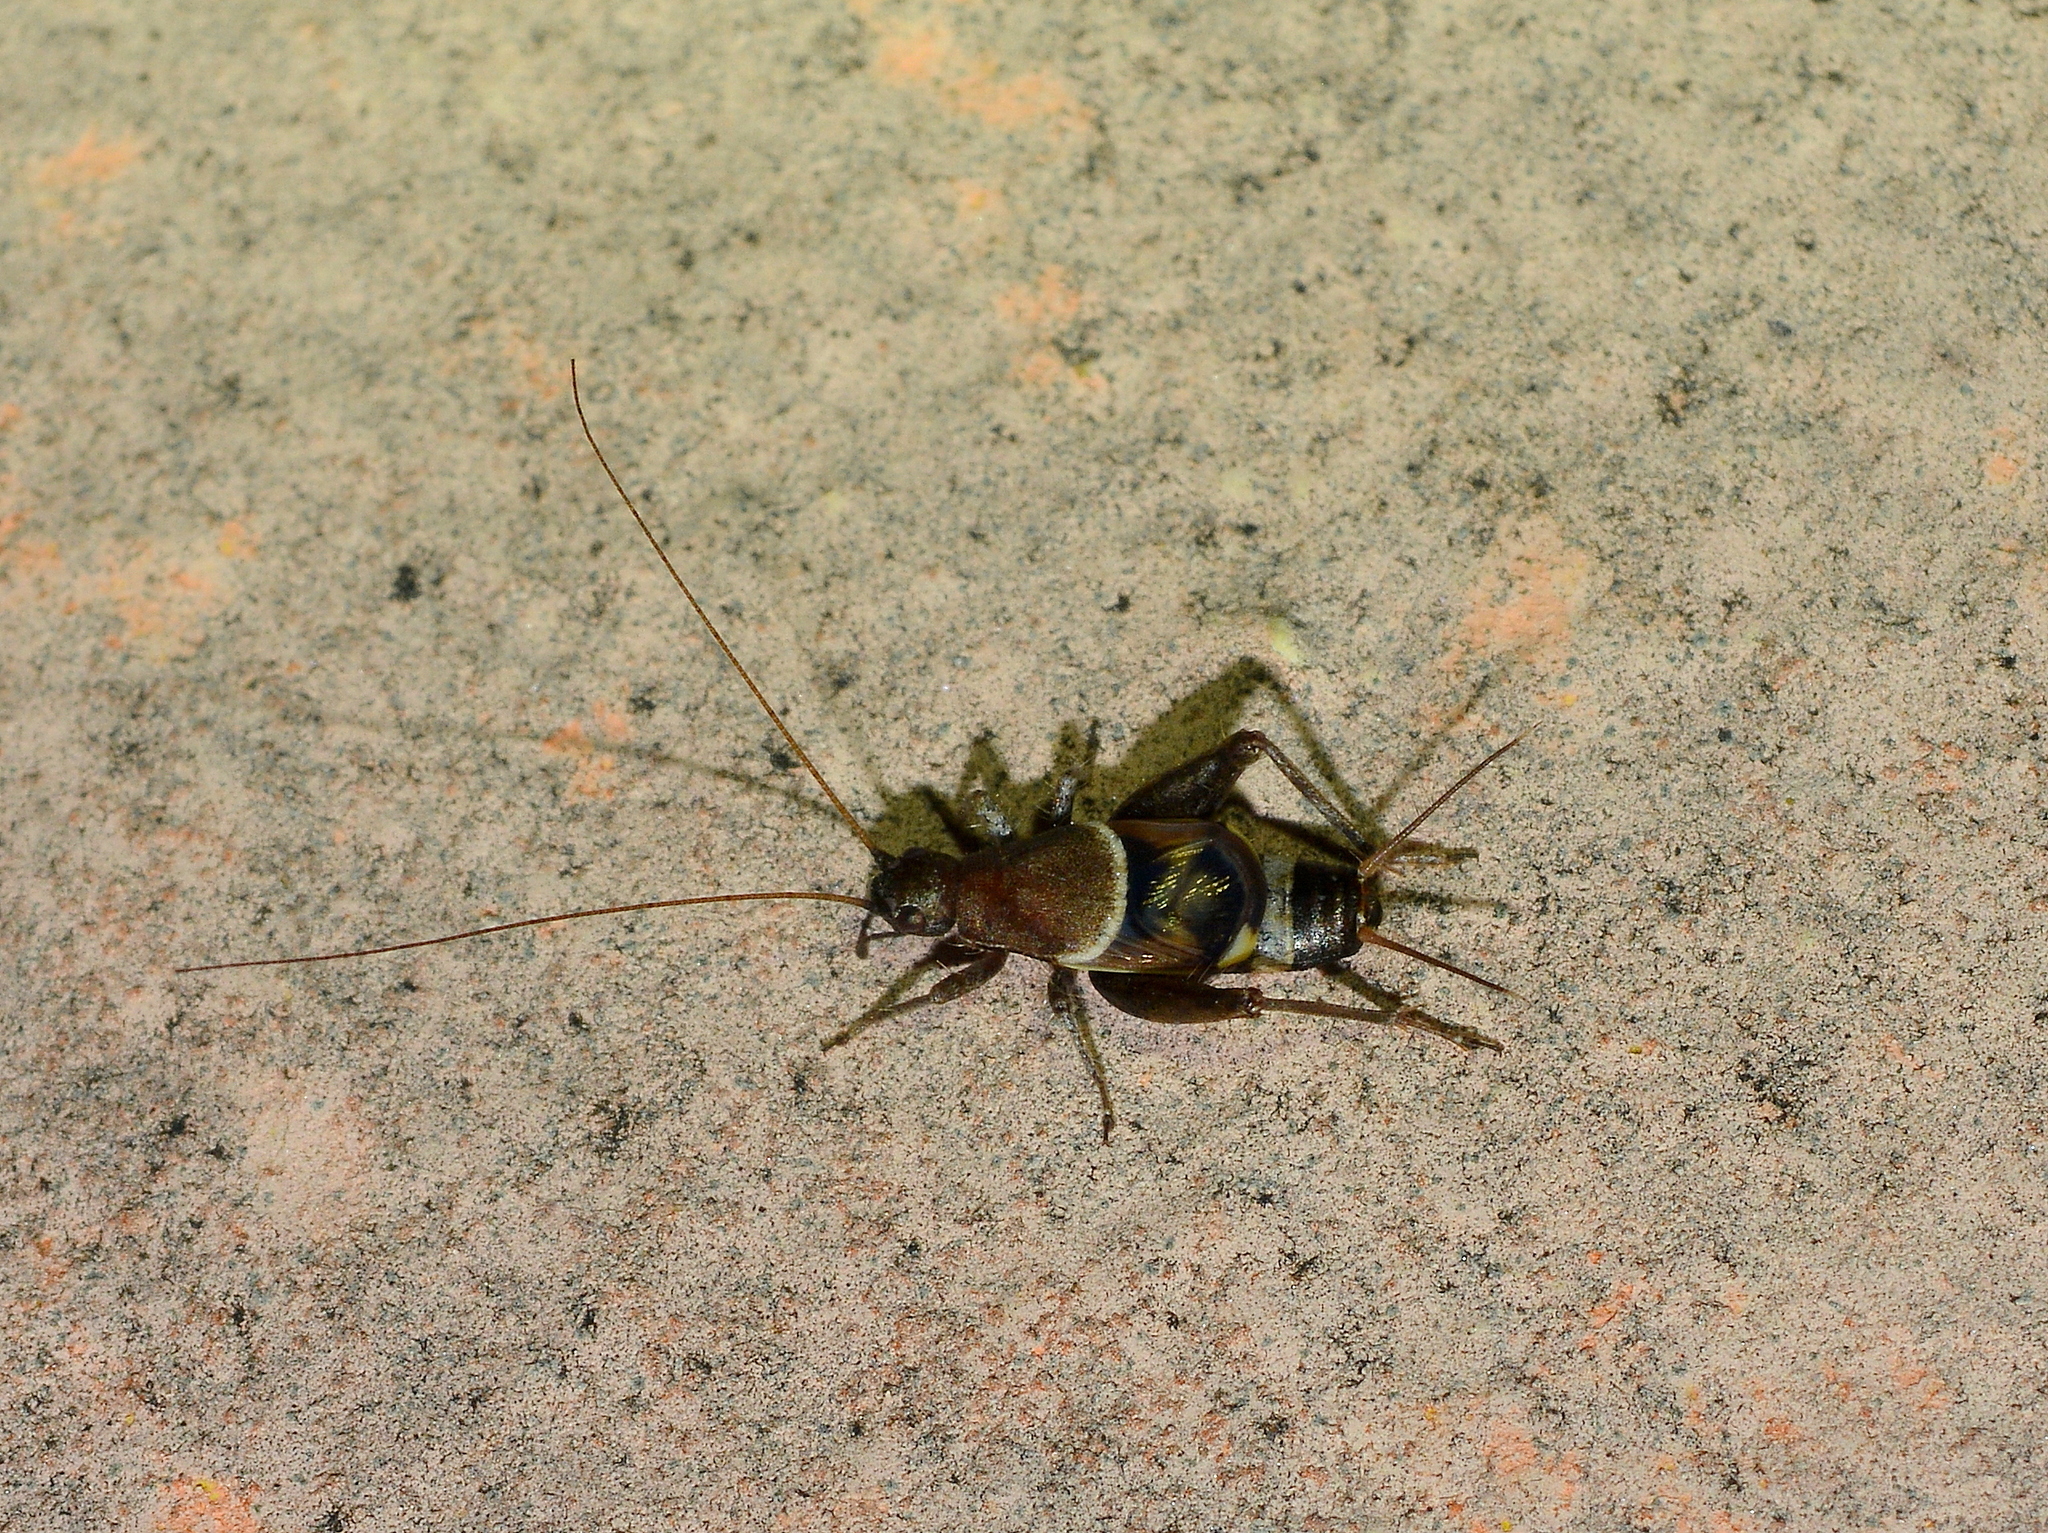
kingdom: Animalia
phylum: Arthropoda
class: Insecta
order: Orthoptera
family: Mogoplistidae
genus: Ornebius
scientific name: Ornebius alatus
